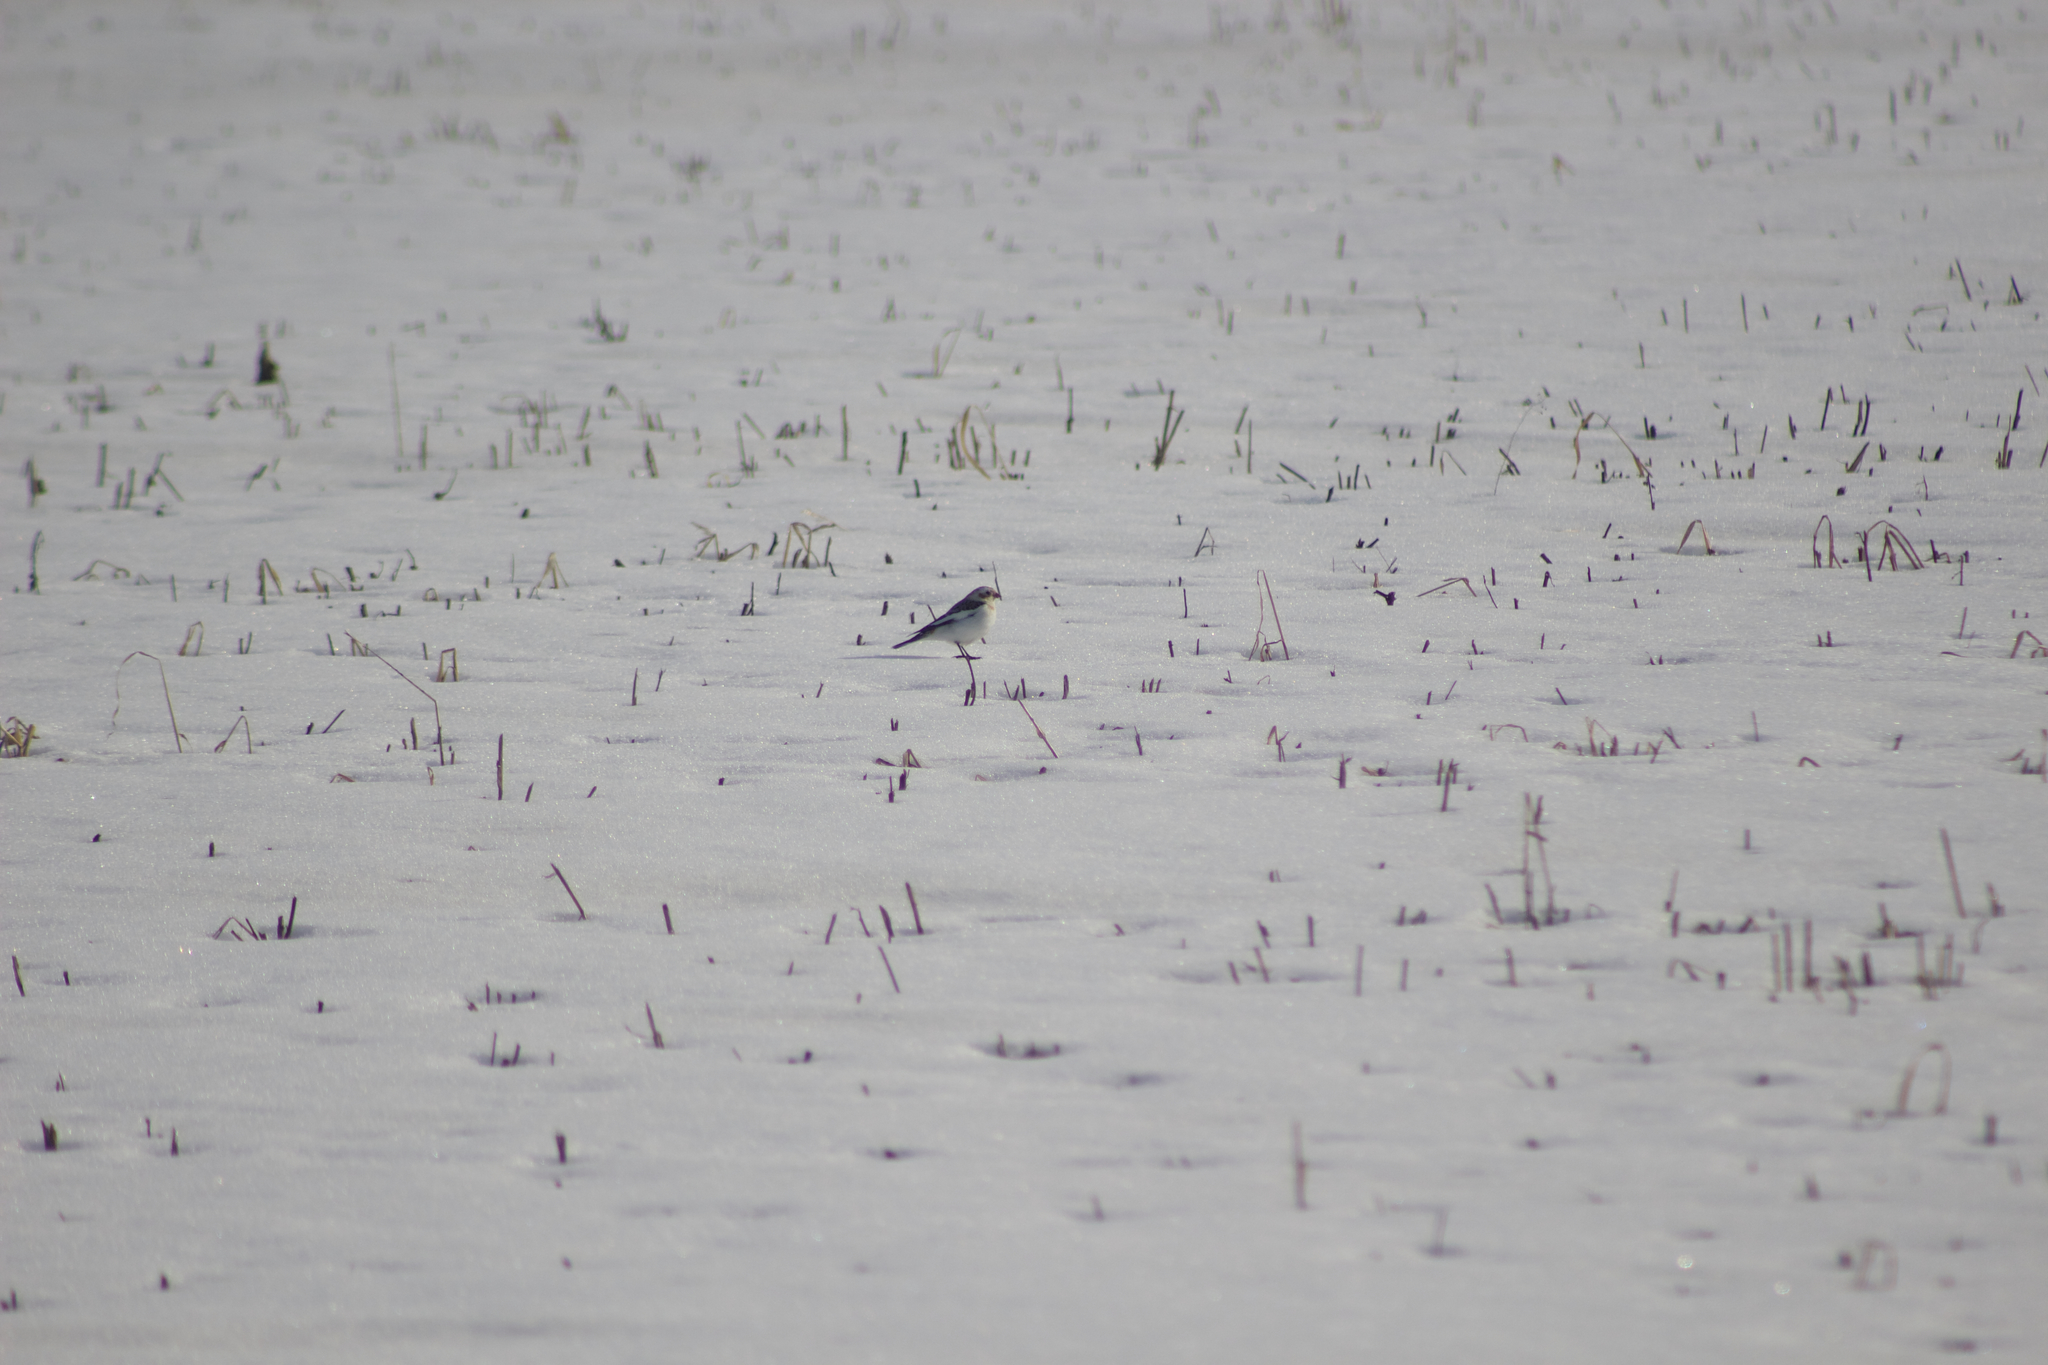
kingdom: Animalia
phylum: Chordata
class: Aves
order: Passeriformes
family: Calcariidae
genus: Plectrophenax
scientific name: Plectrophenax nivalis
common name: Snow bunting
